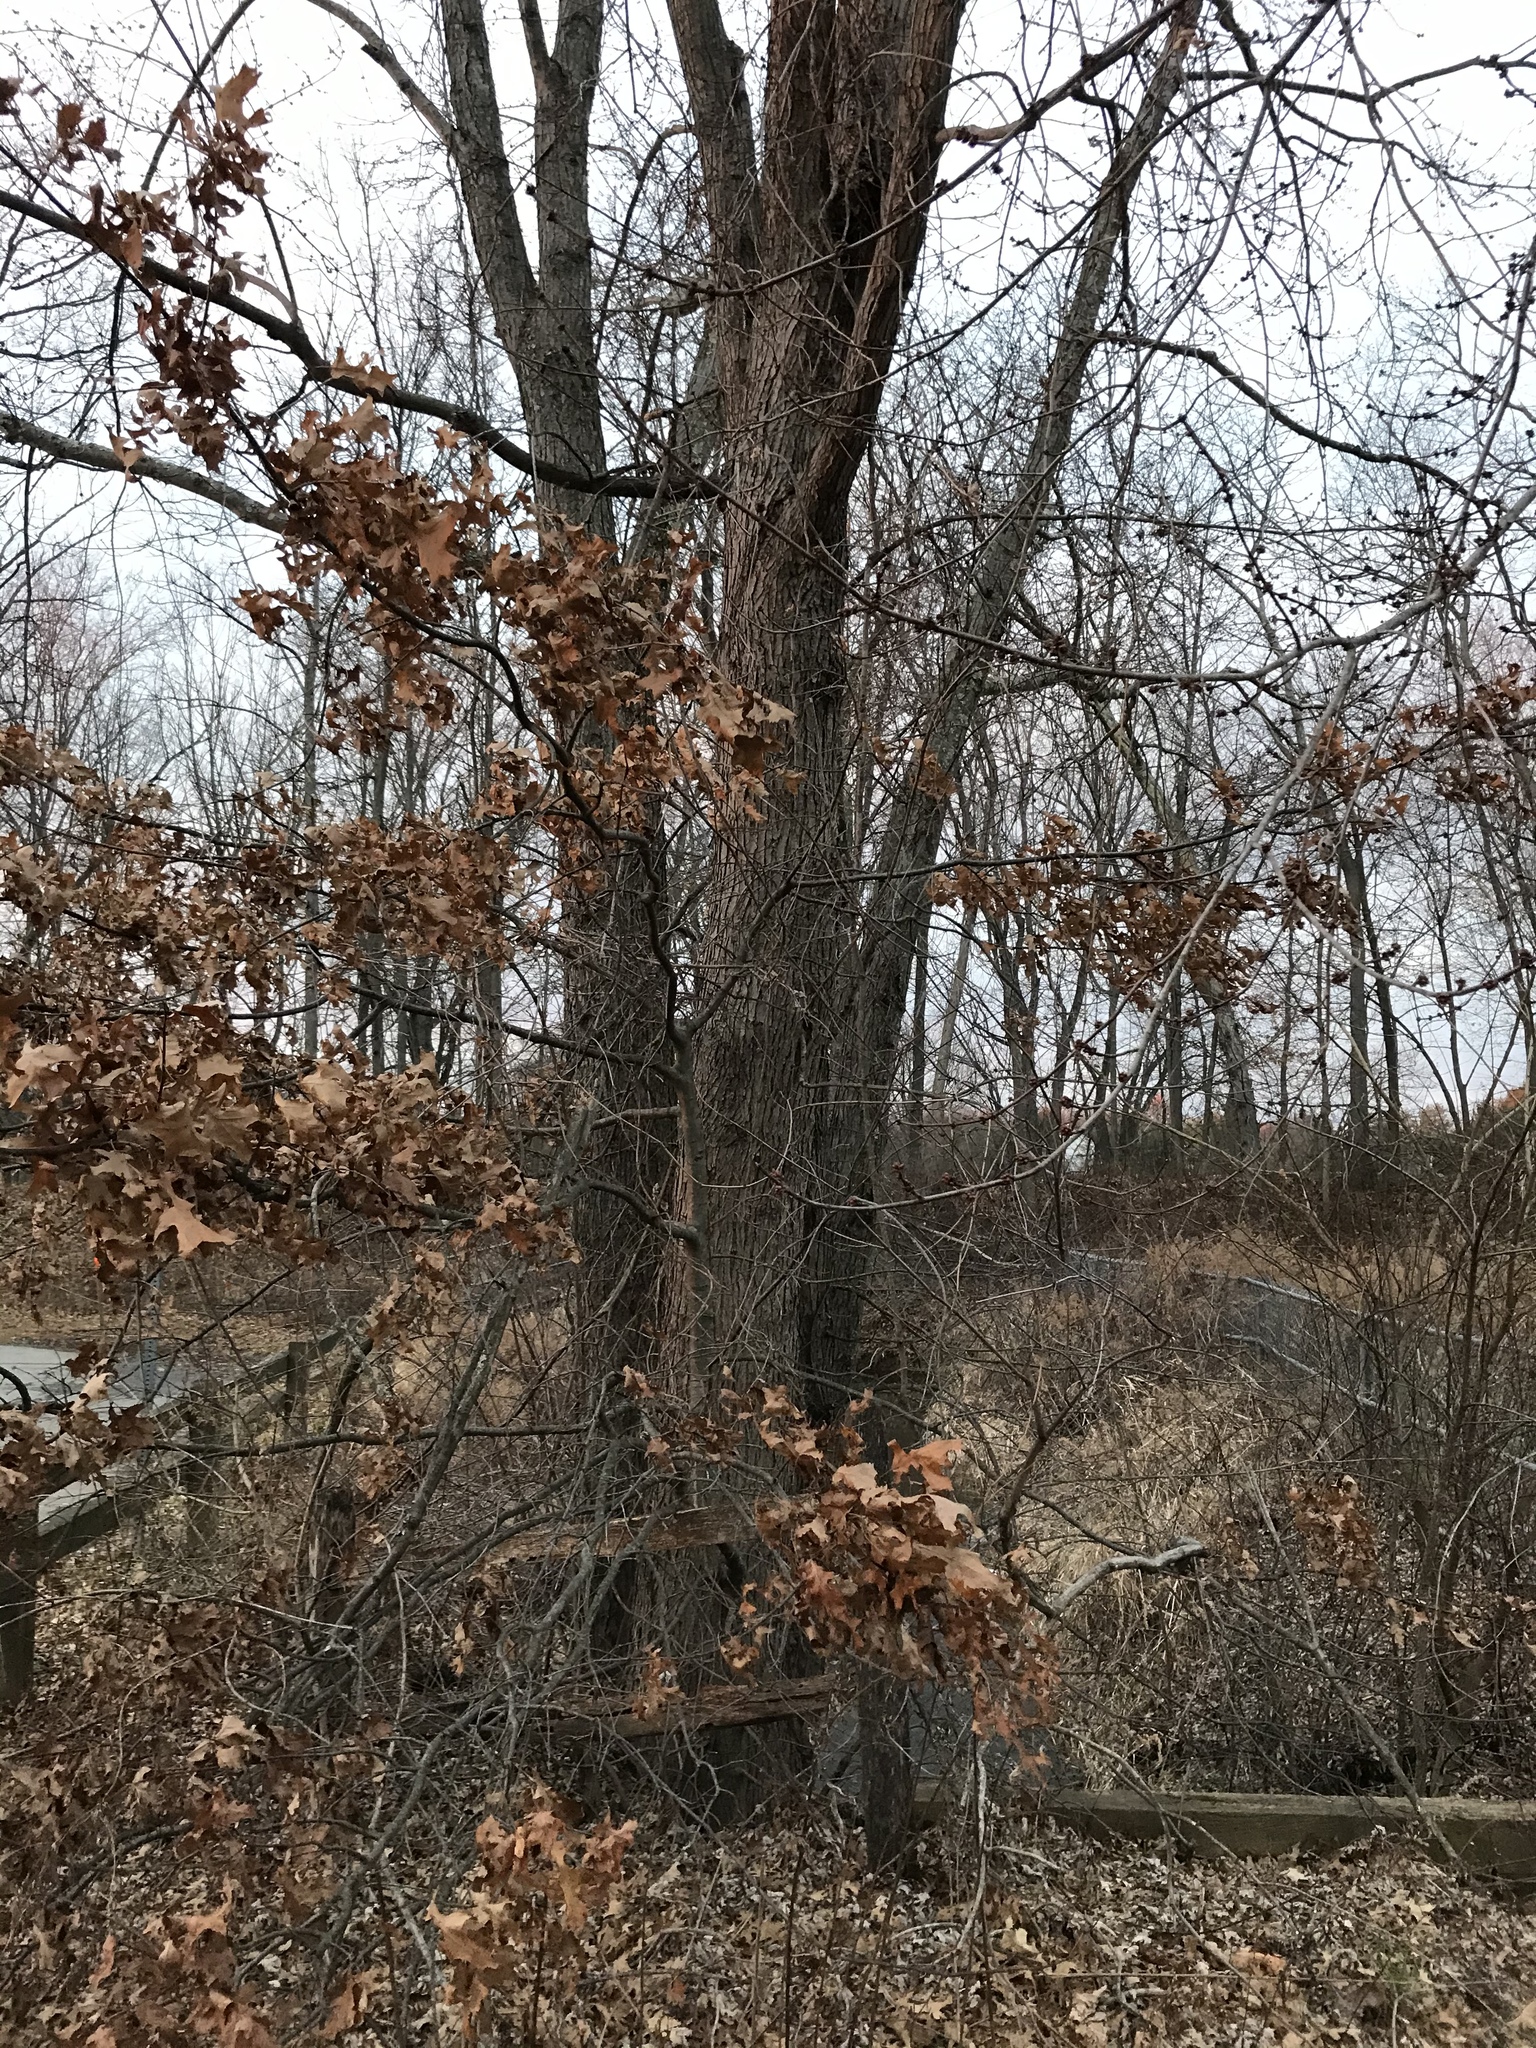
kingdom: Plantae
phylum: Tracheophyta
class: Magnoliopsida
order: Sapindales
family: Sapindaceae
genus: Acer
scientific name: Acer saccharinum
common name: Silver maple
